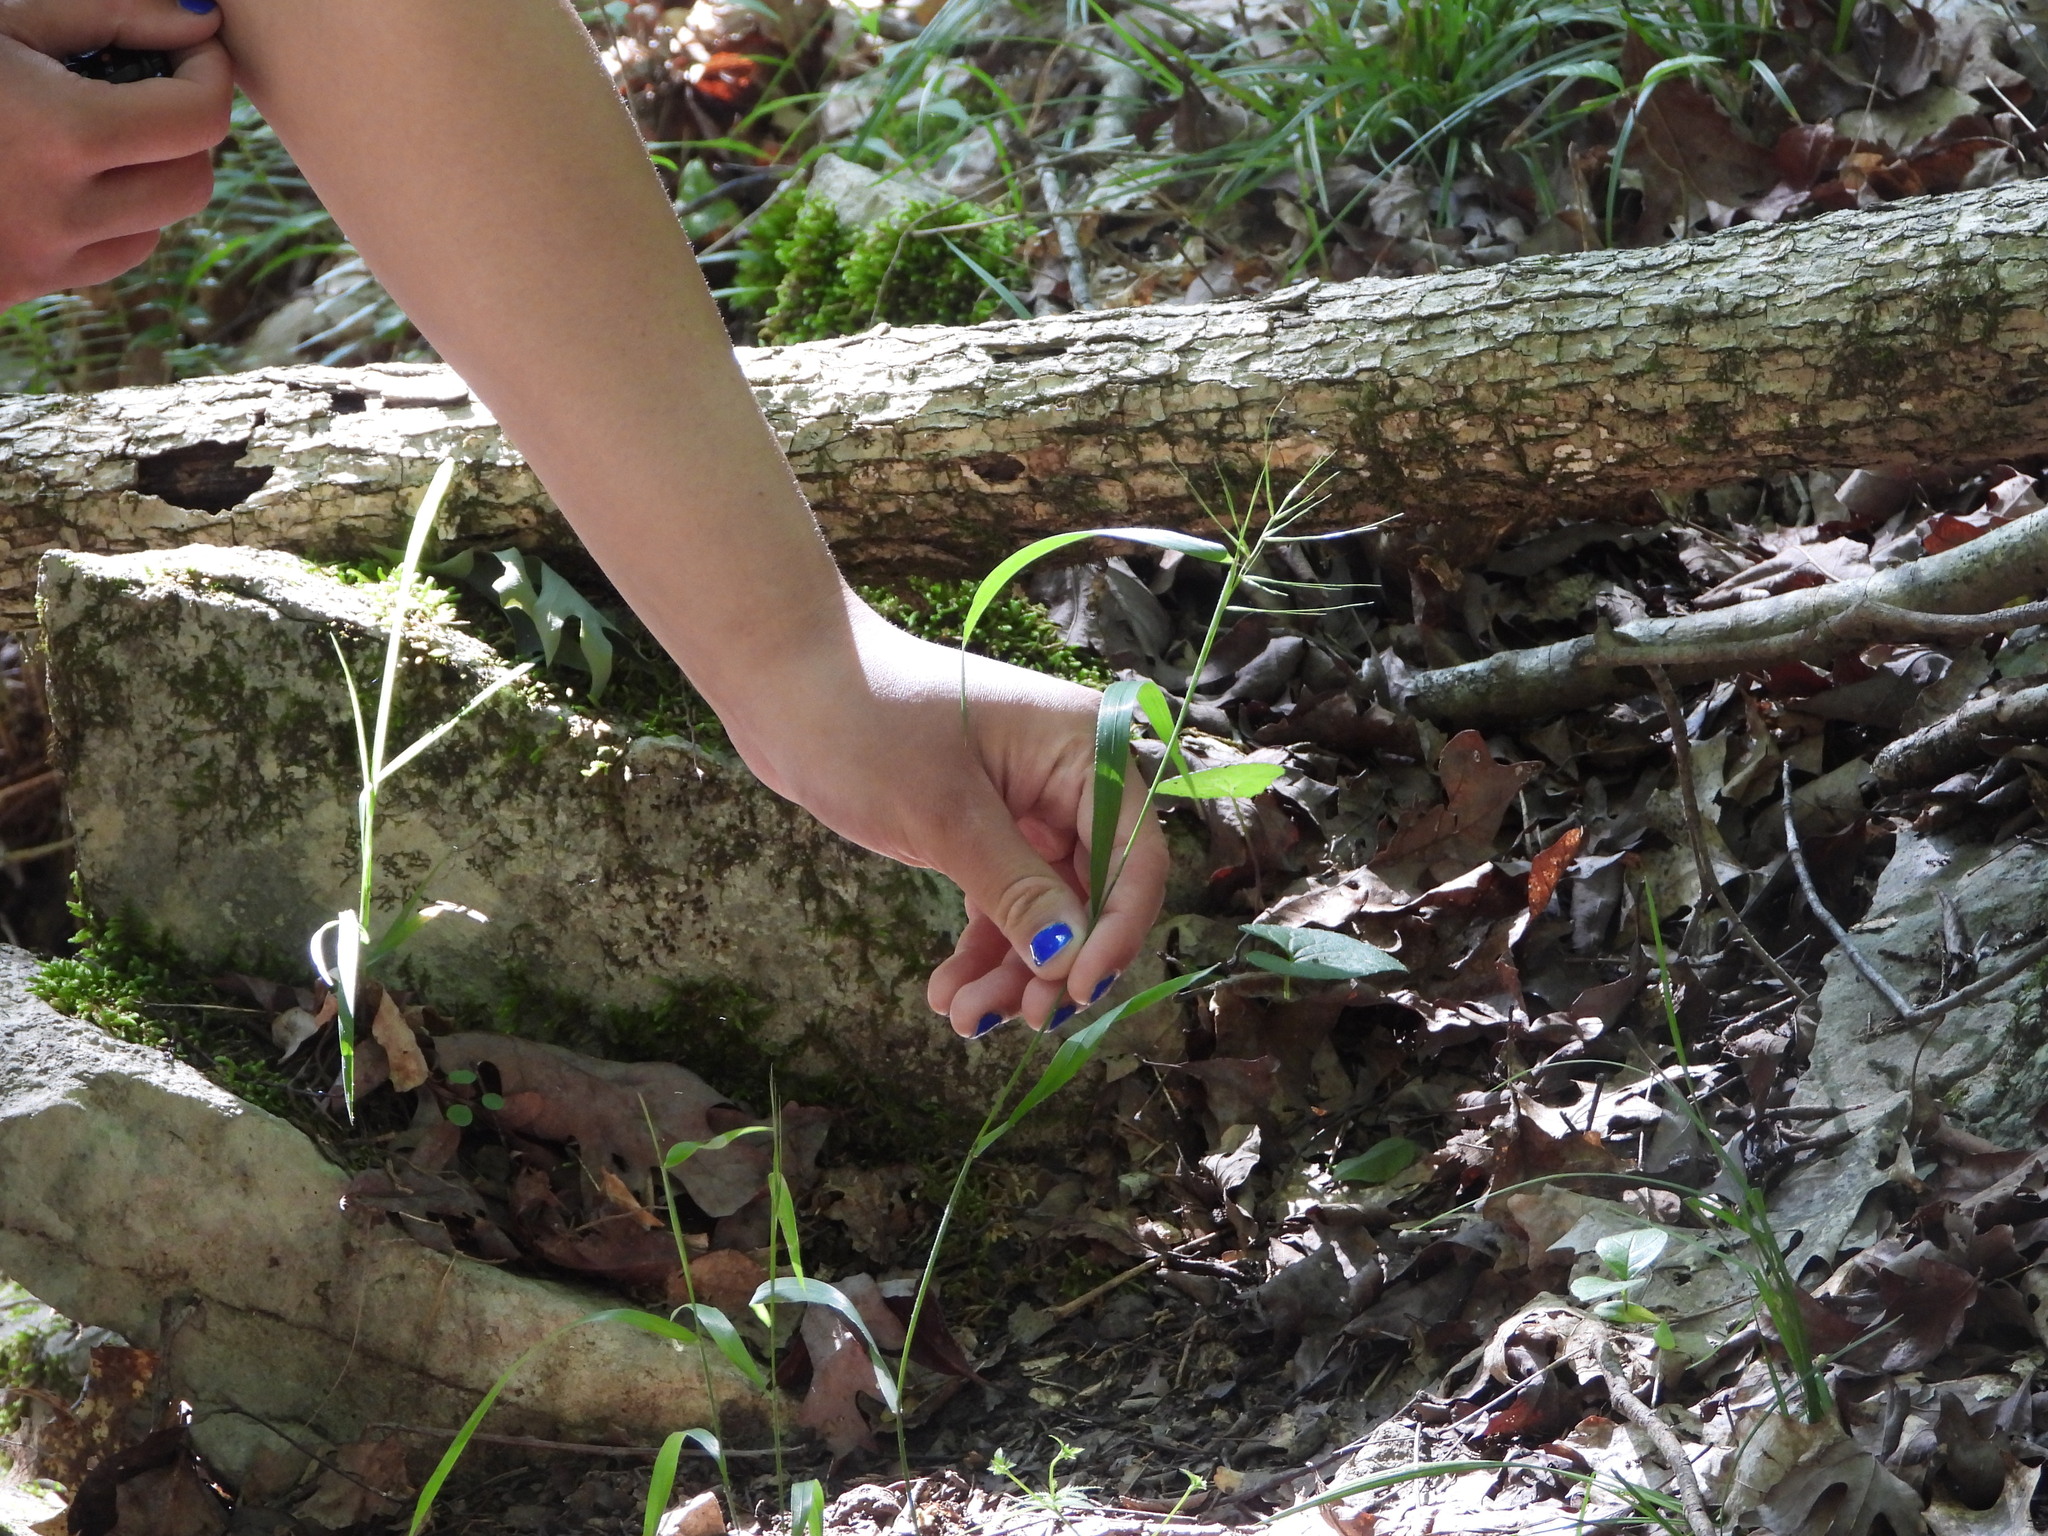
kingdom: Plantae
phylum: Tracheophyta
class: Liliopsida
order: Poales
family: Poaceae
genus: Elymus
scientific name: Elymus hystrix
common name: Bottlebrush grass
